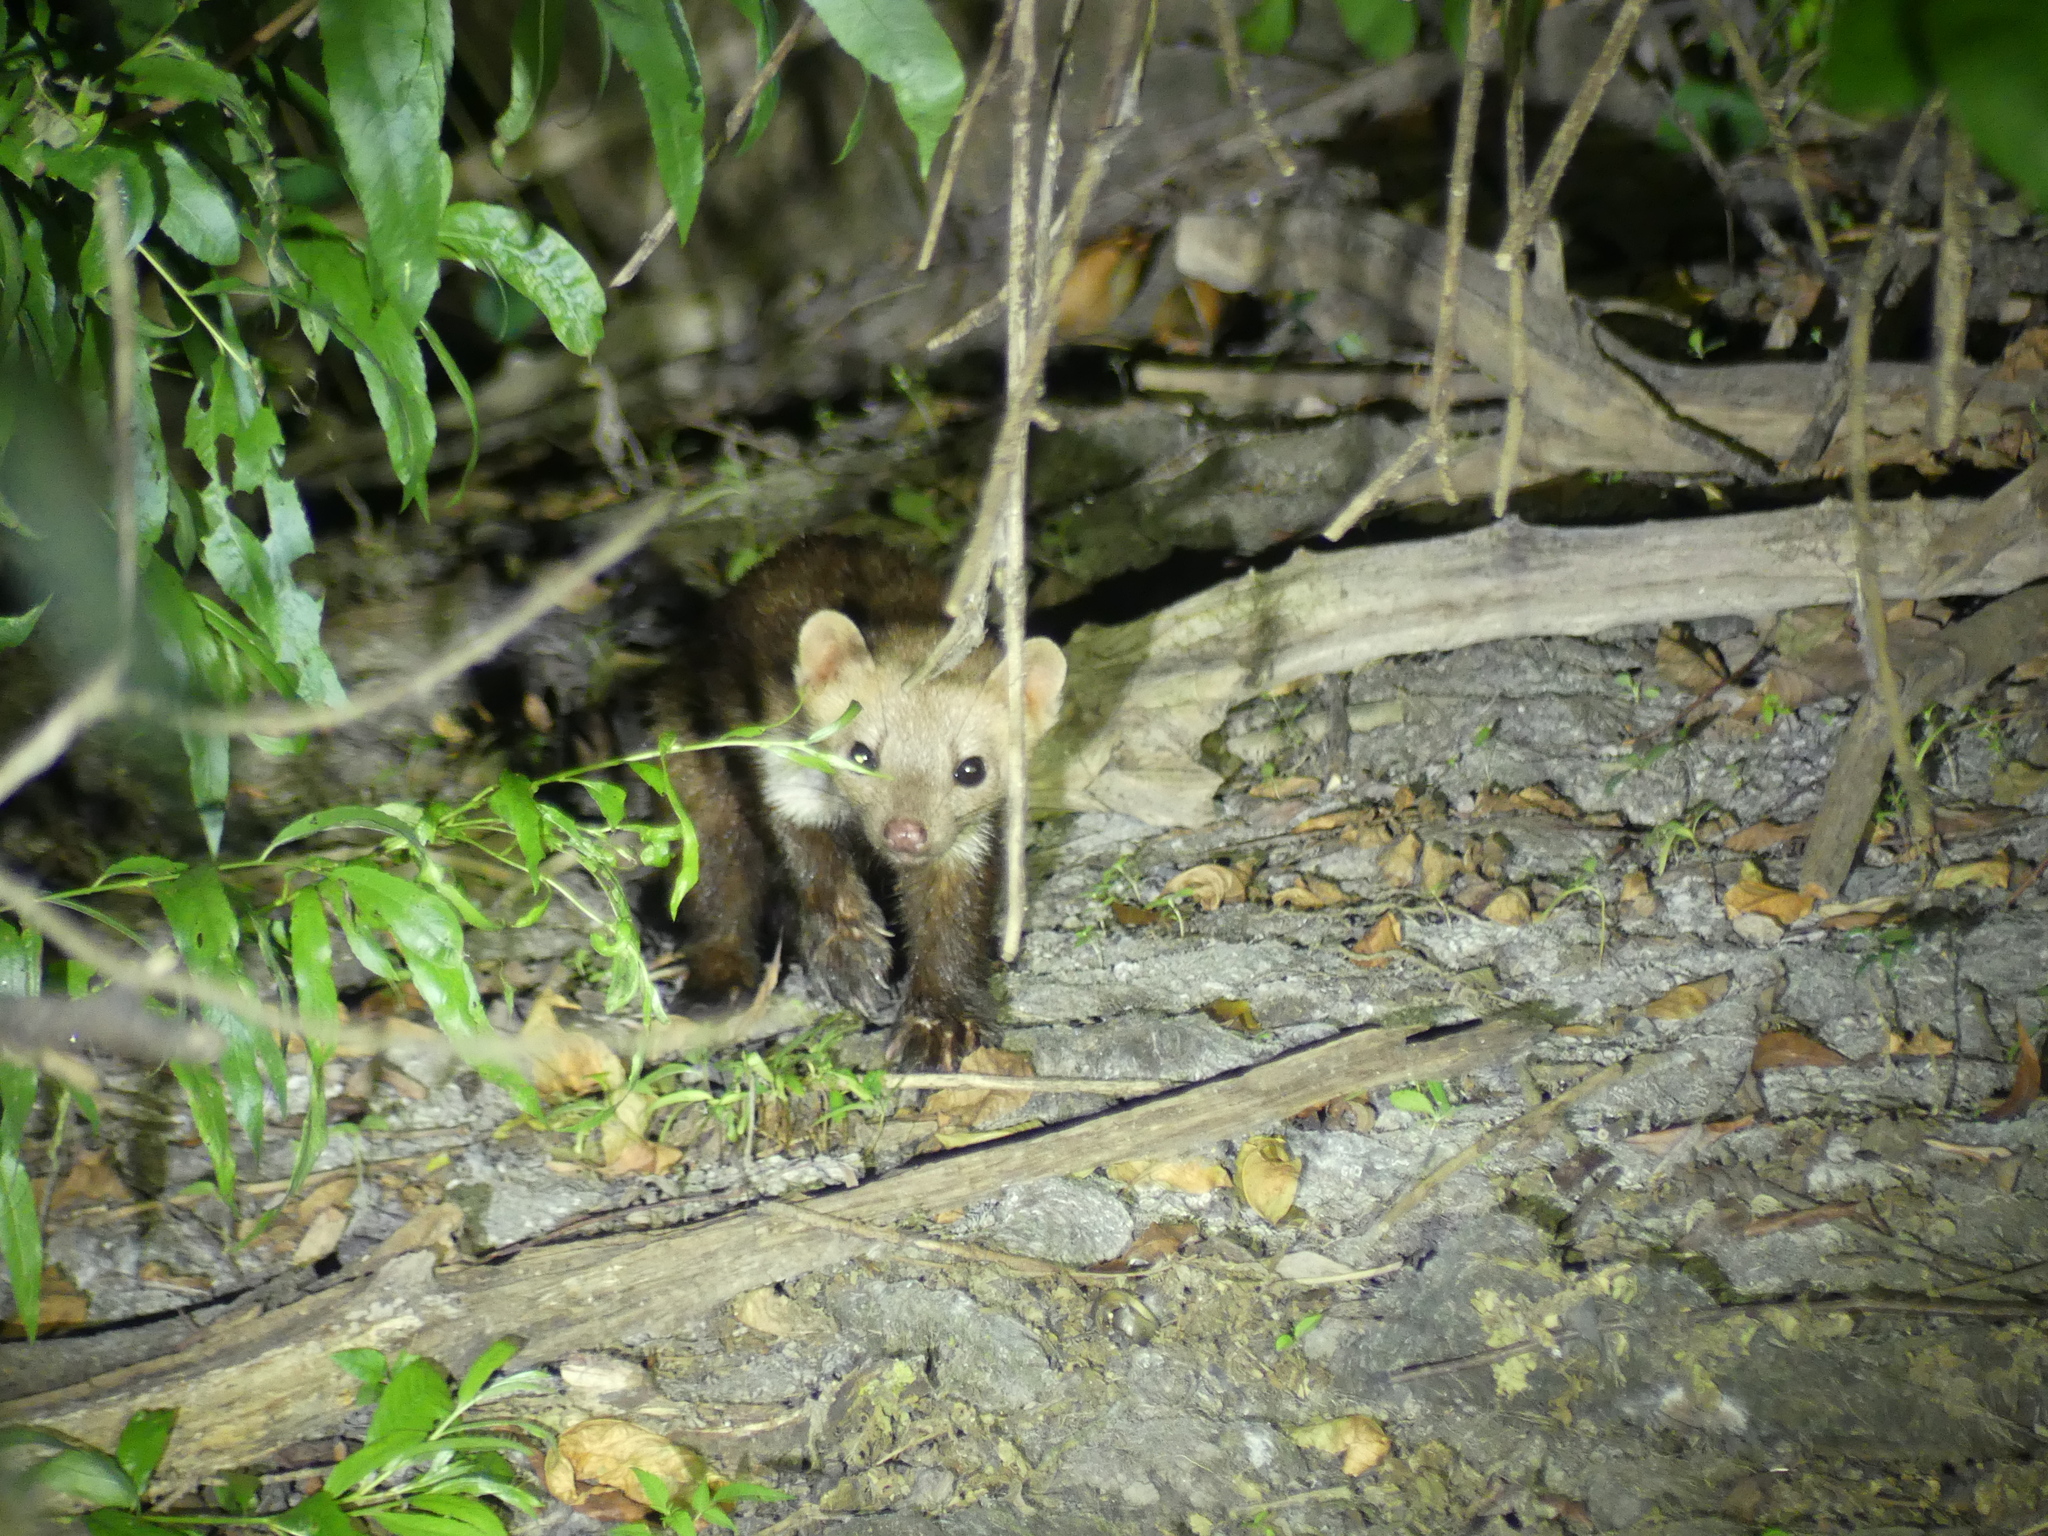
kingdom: Animalia
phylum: Chordata
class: Mammalia
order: Carnivora
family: Mustelidae
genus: Martes
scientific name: Martes foina
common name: Beech marten
